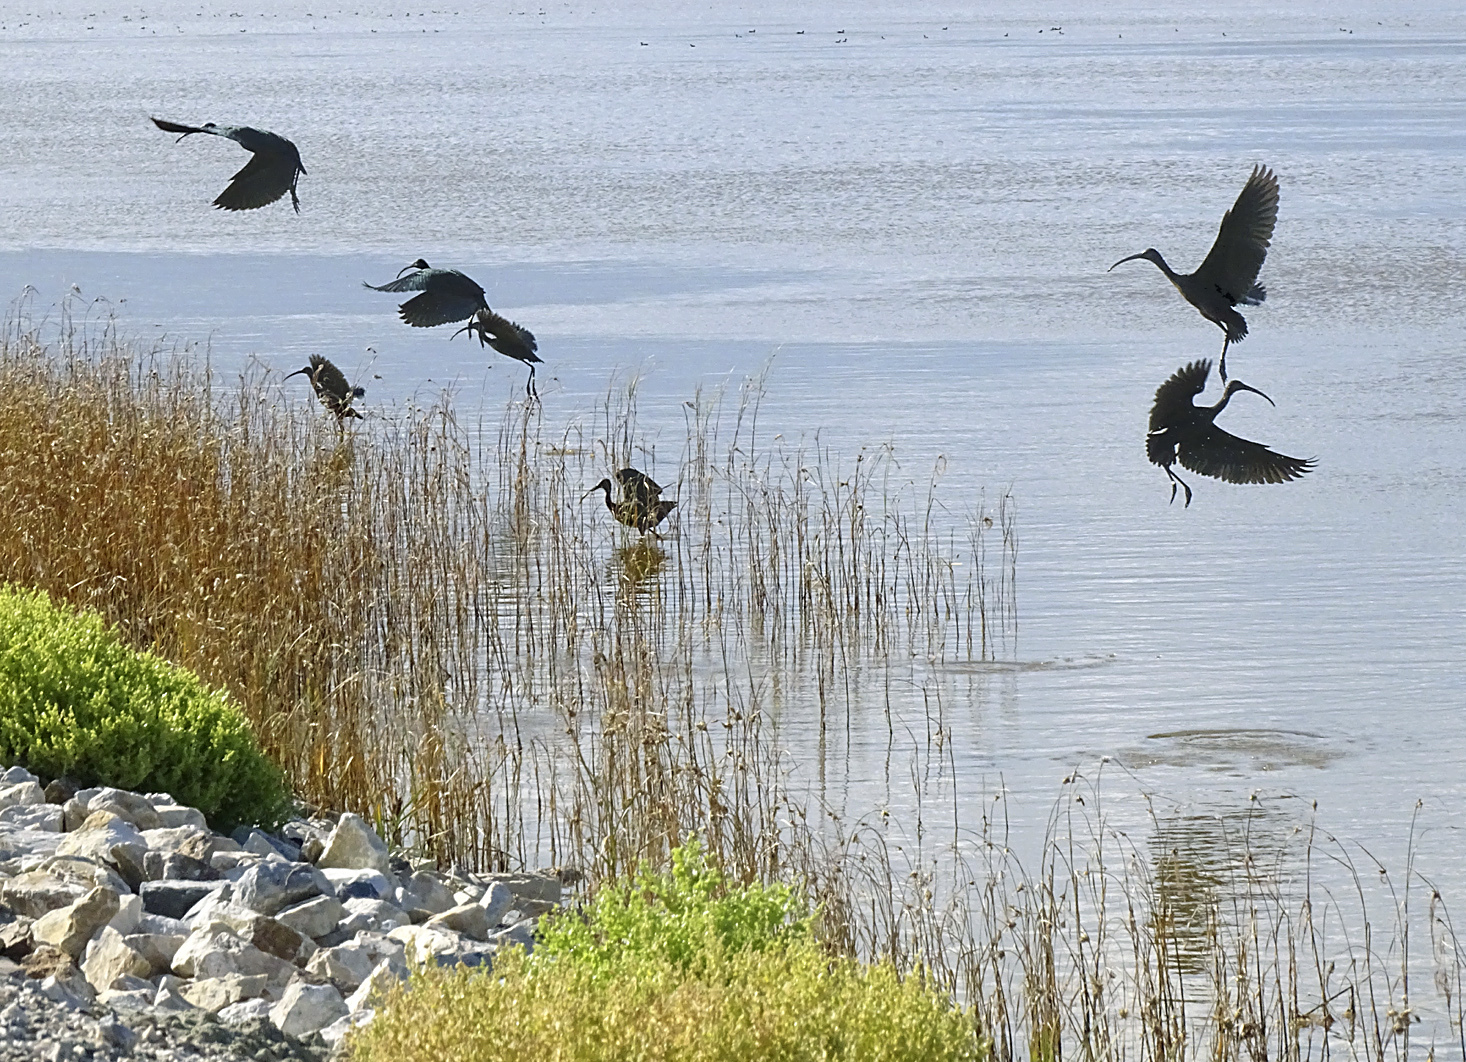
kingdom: Animalia
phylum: Chordata
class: Aves
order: Pelecaniformes
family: Threskiornithidae
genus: Plegadis
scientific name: Plegadis chihi
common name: White-faced ibis
